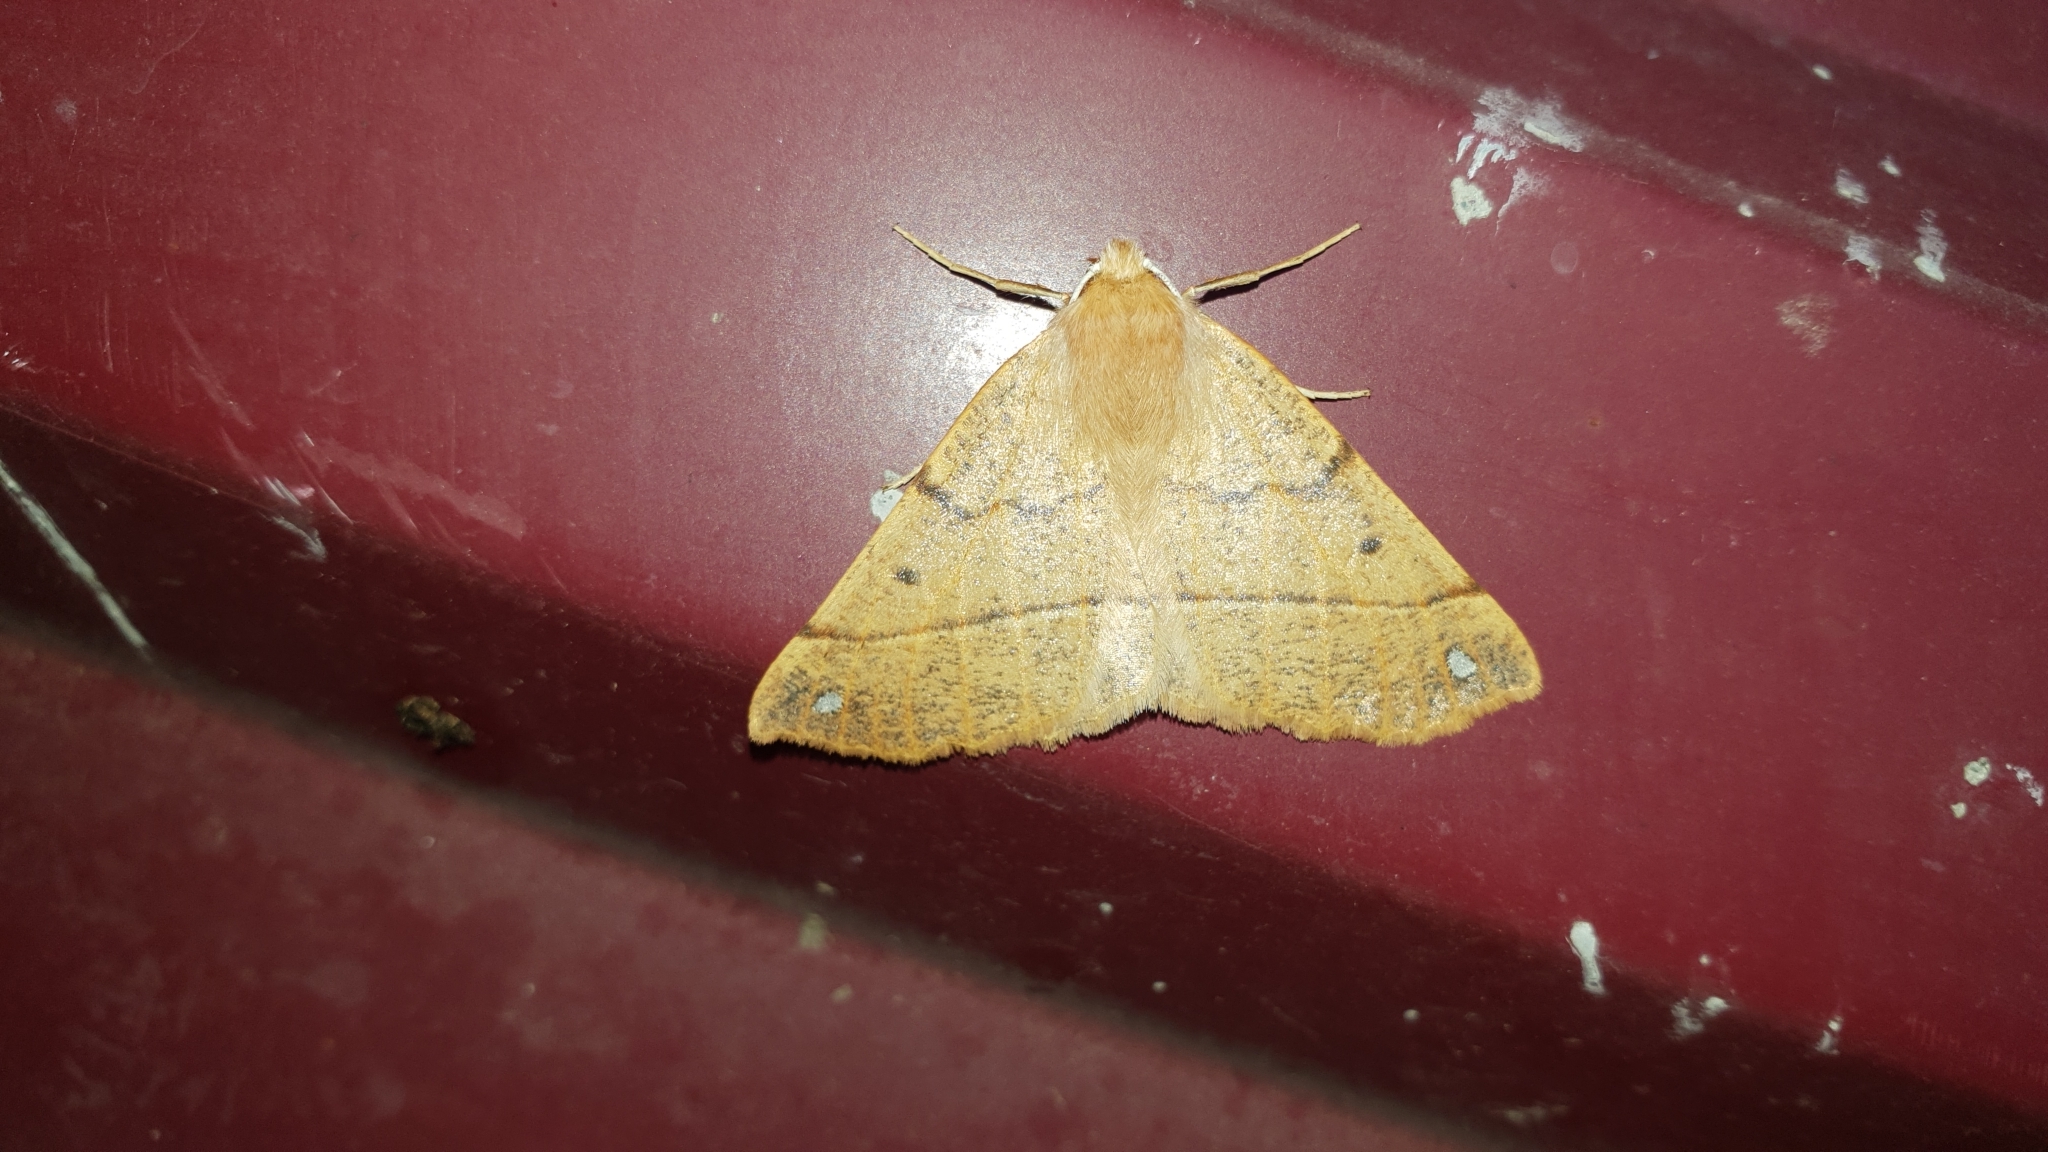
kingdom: Animalia
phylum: Arthropoda
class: Insecta
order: Lepidoptera
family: Geometridae
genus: Colotois
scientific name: Colotois pennaria
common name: Feathered thorn
